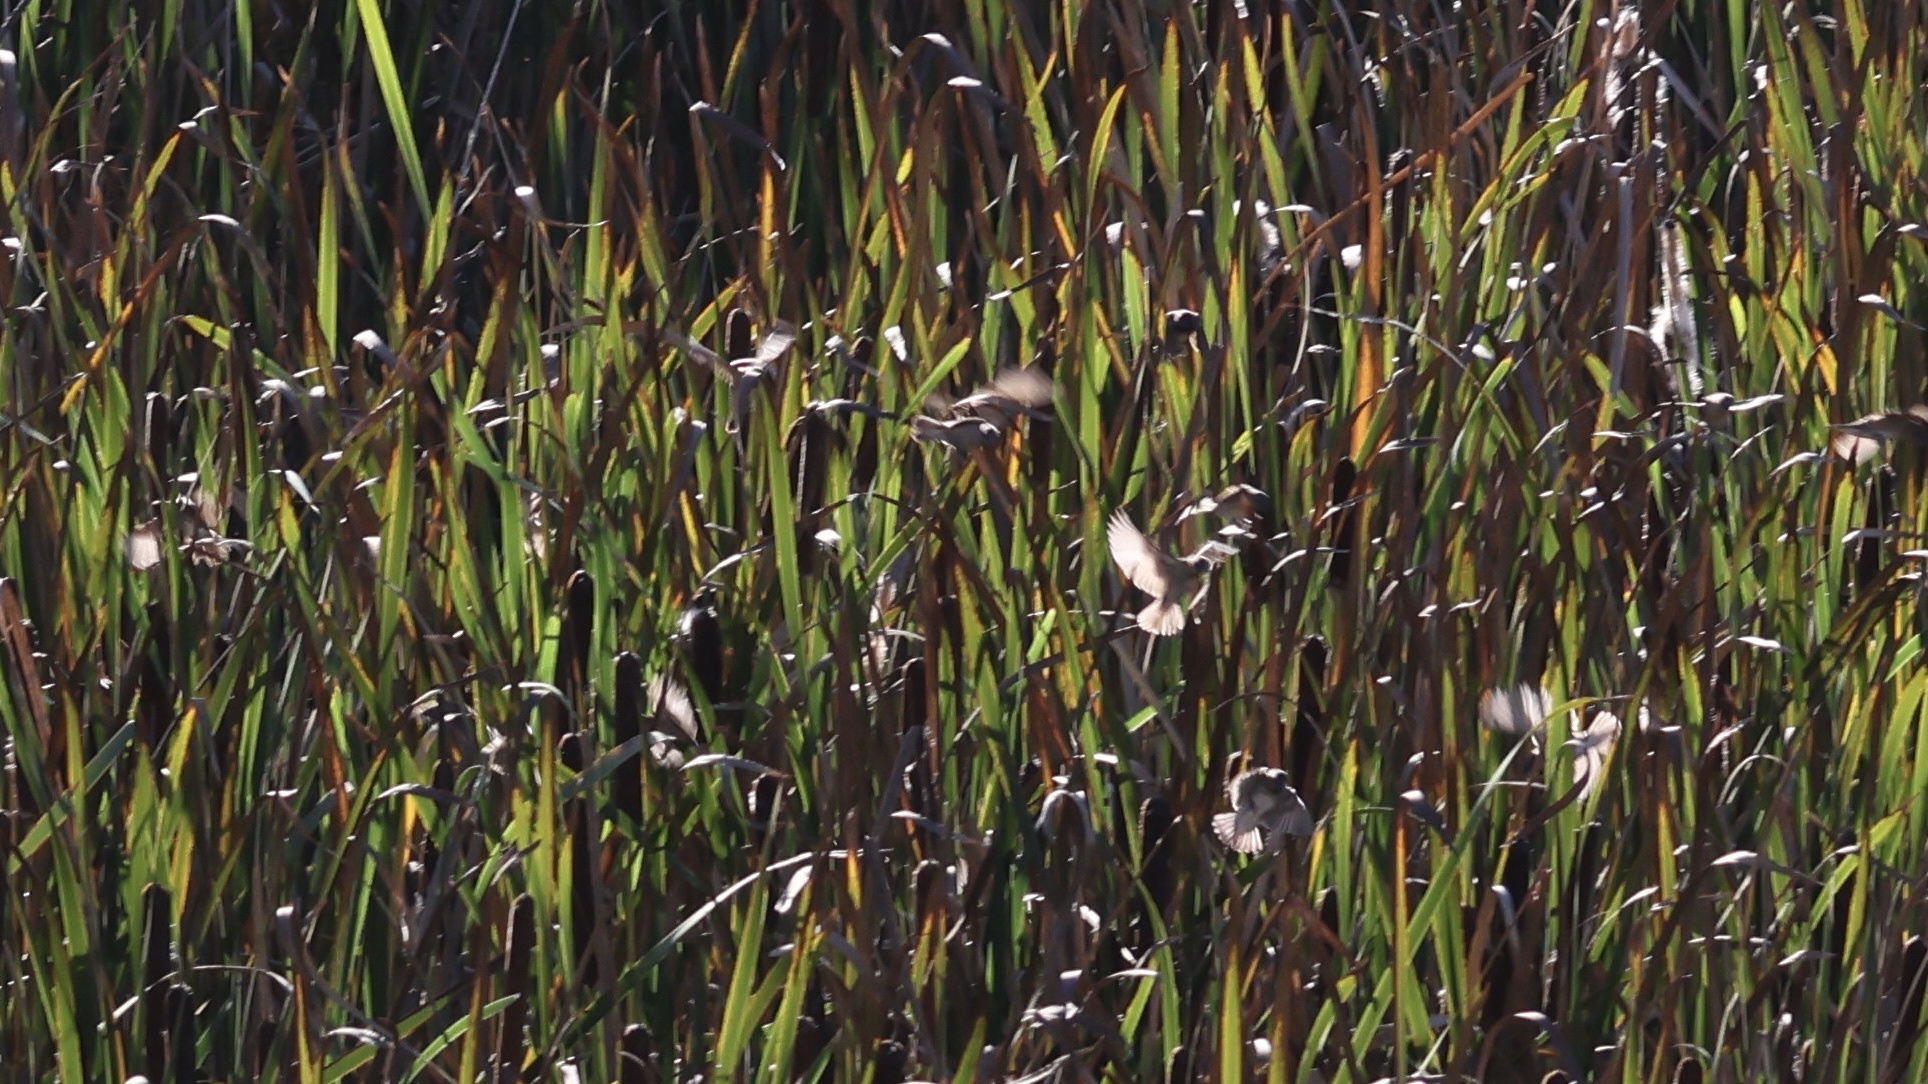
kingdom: Animalia
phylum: Chordata
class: Aves
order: Passeriformes
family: Estrildidae
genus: Lonchura
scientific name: Lonchura punctulata
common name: Scaly-breasted munia
